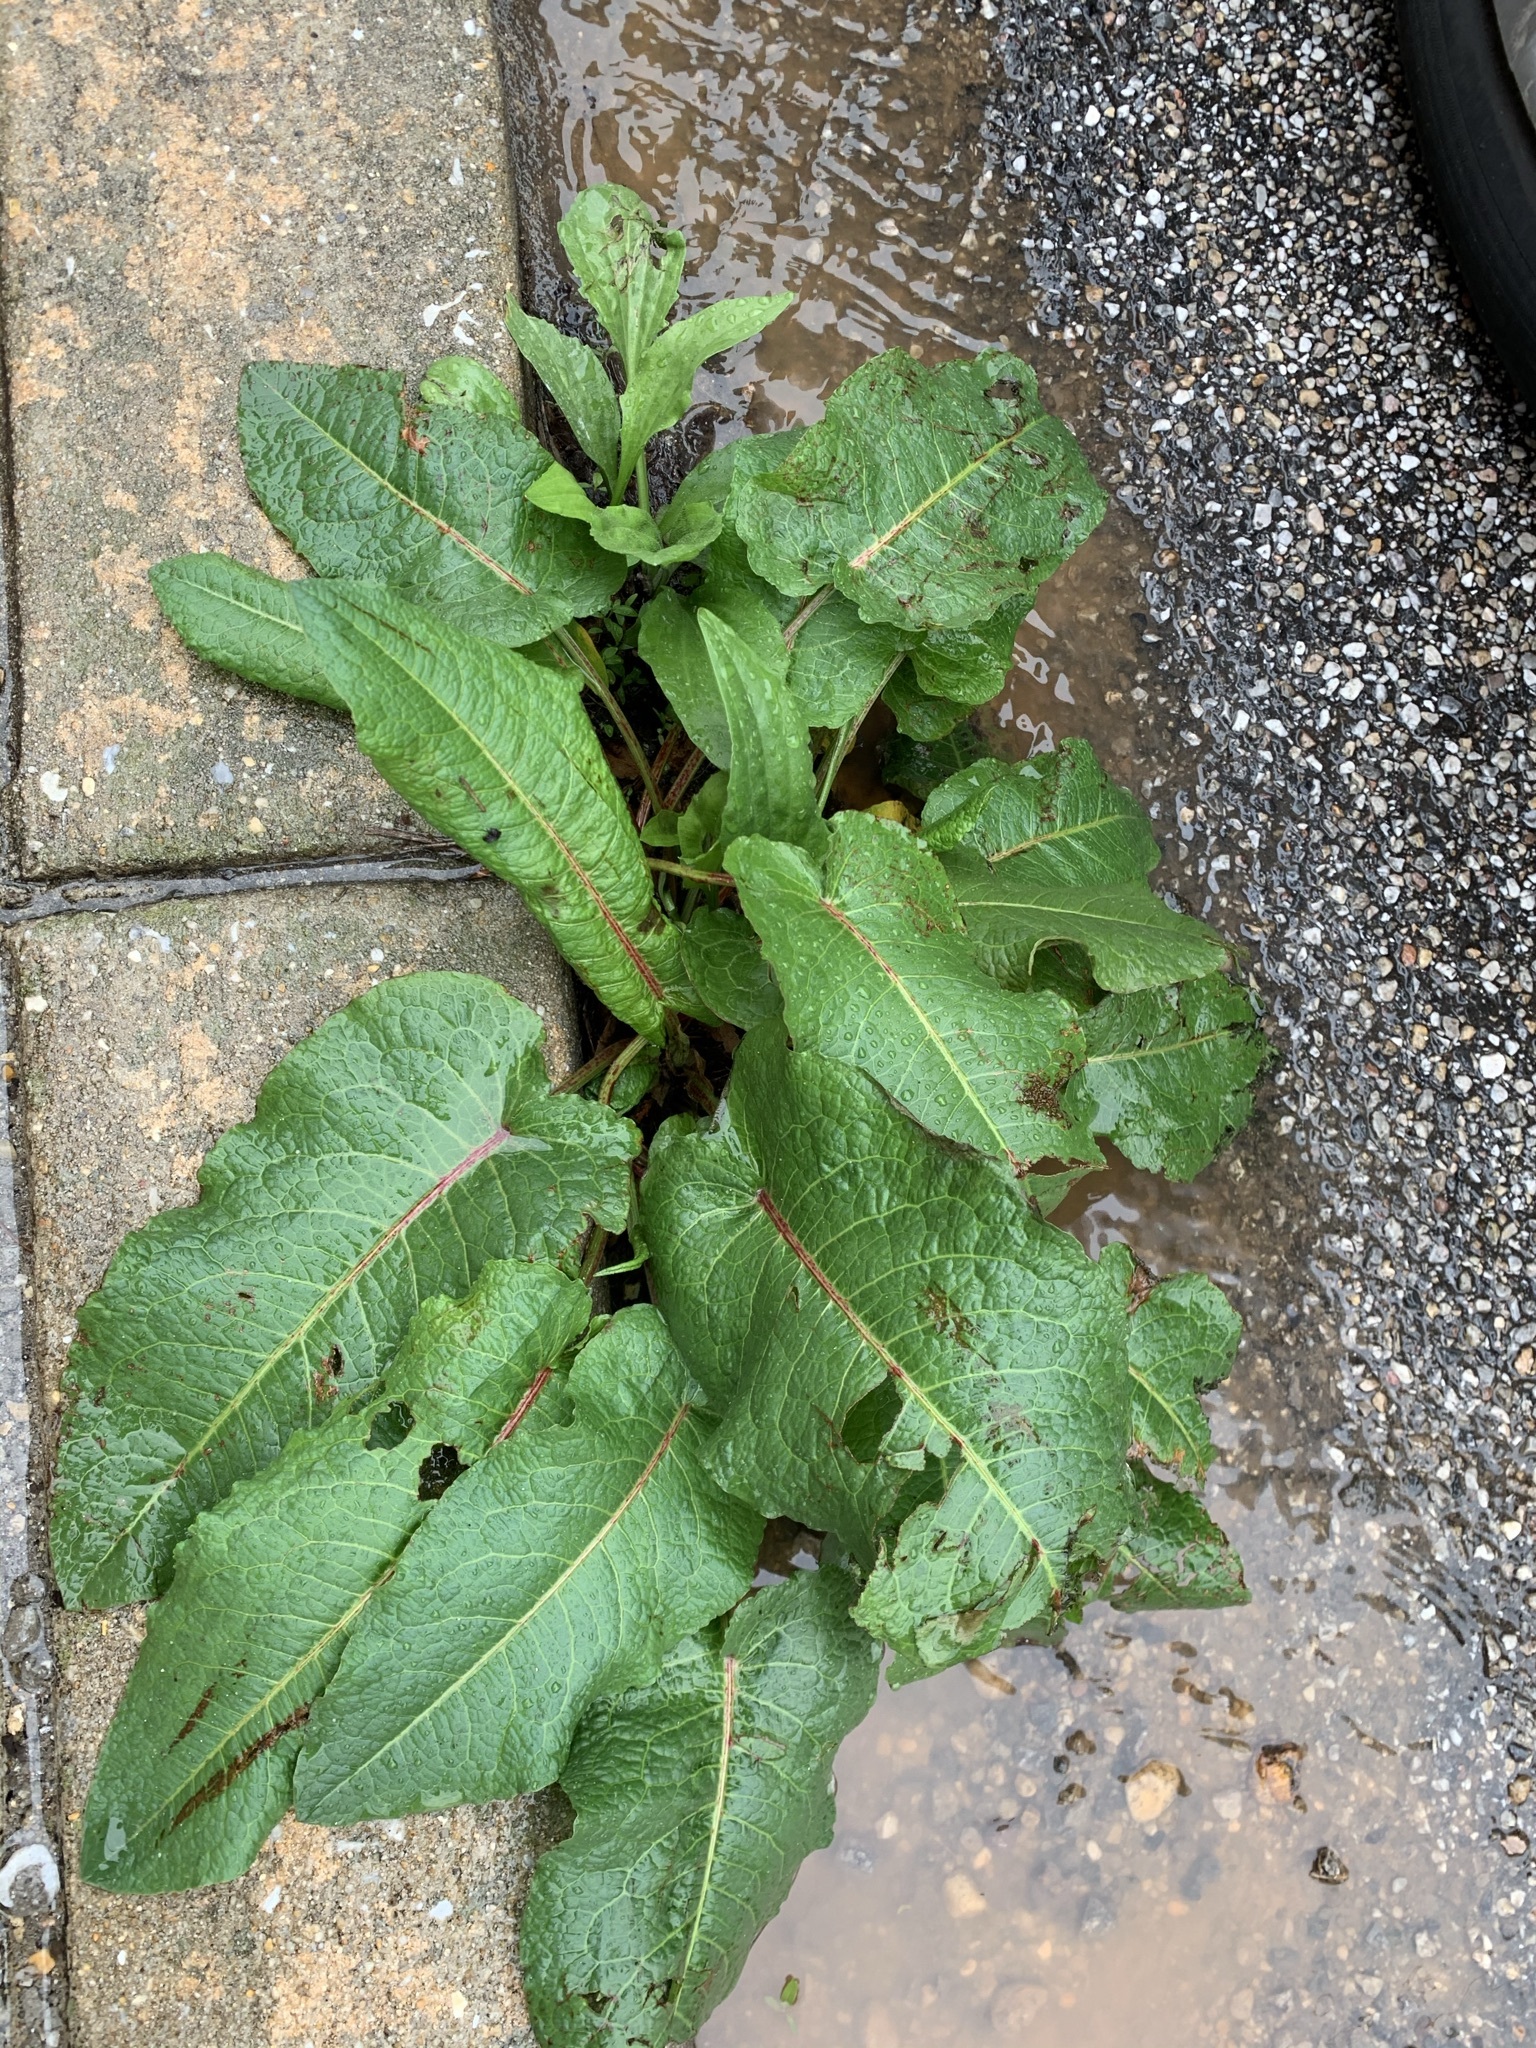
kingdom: Plantae
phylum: Tracheophyta
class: Magnoliopsida
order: Caryophyllales
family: Polygonaceae
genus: Rumex
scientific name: Rumex obtusifolius
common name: Bitter dock
